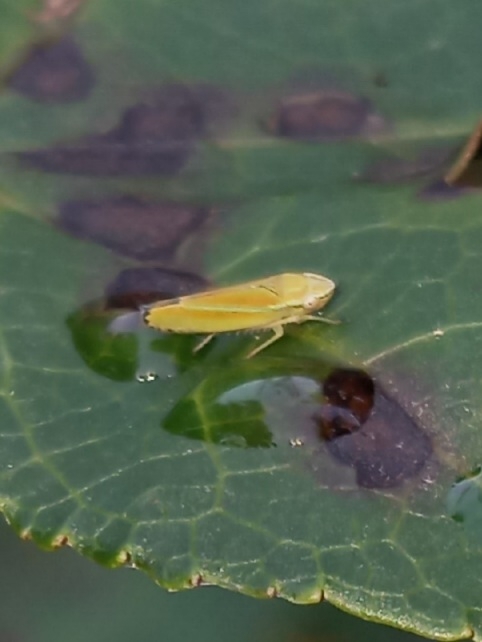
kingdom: Animalia
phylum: Arthropoda
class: Insecta
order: Hemiptera
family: Cicadellidae
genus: Graphocephala
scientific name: Graphocephala versuta
